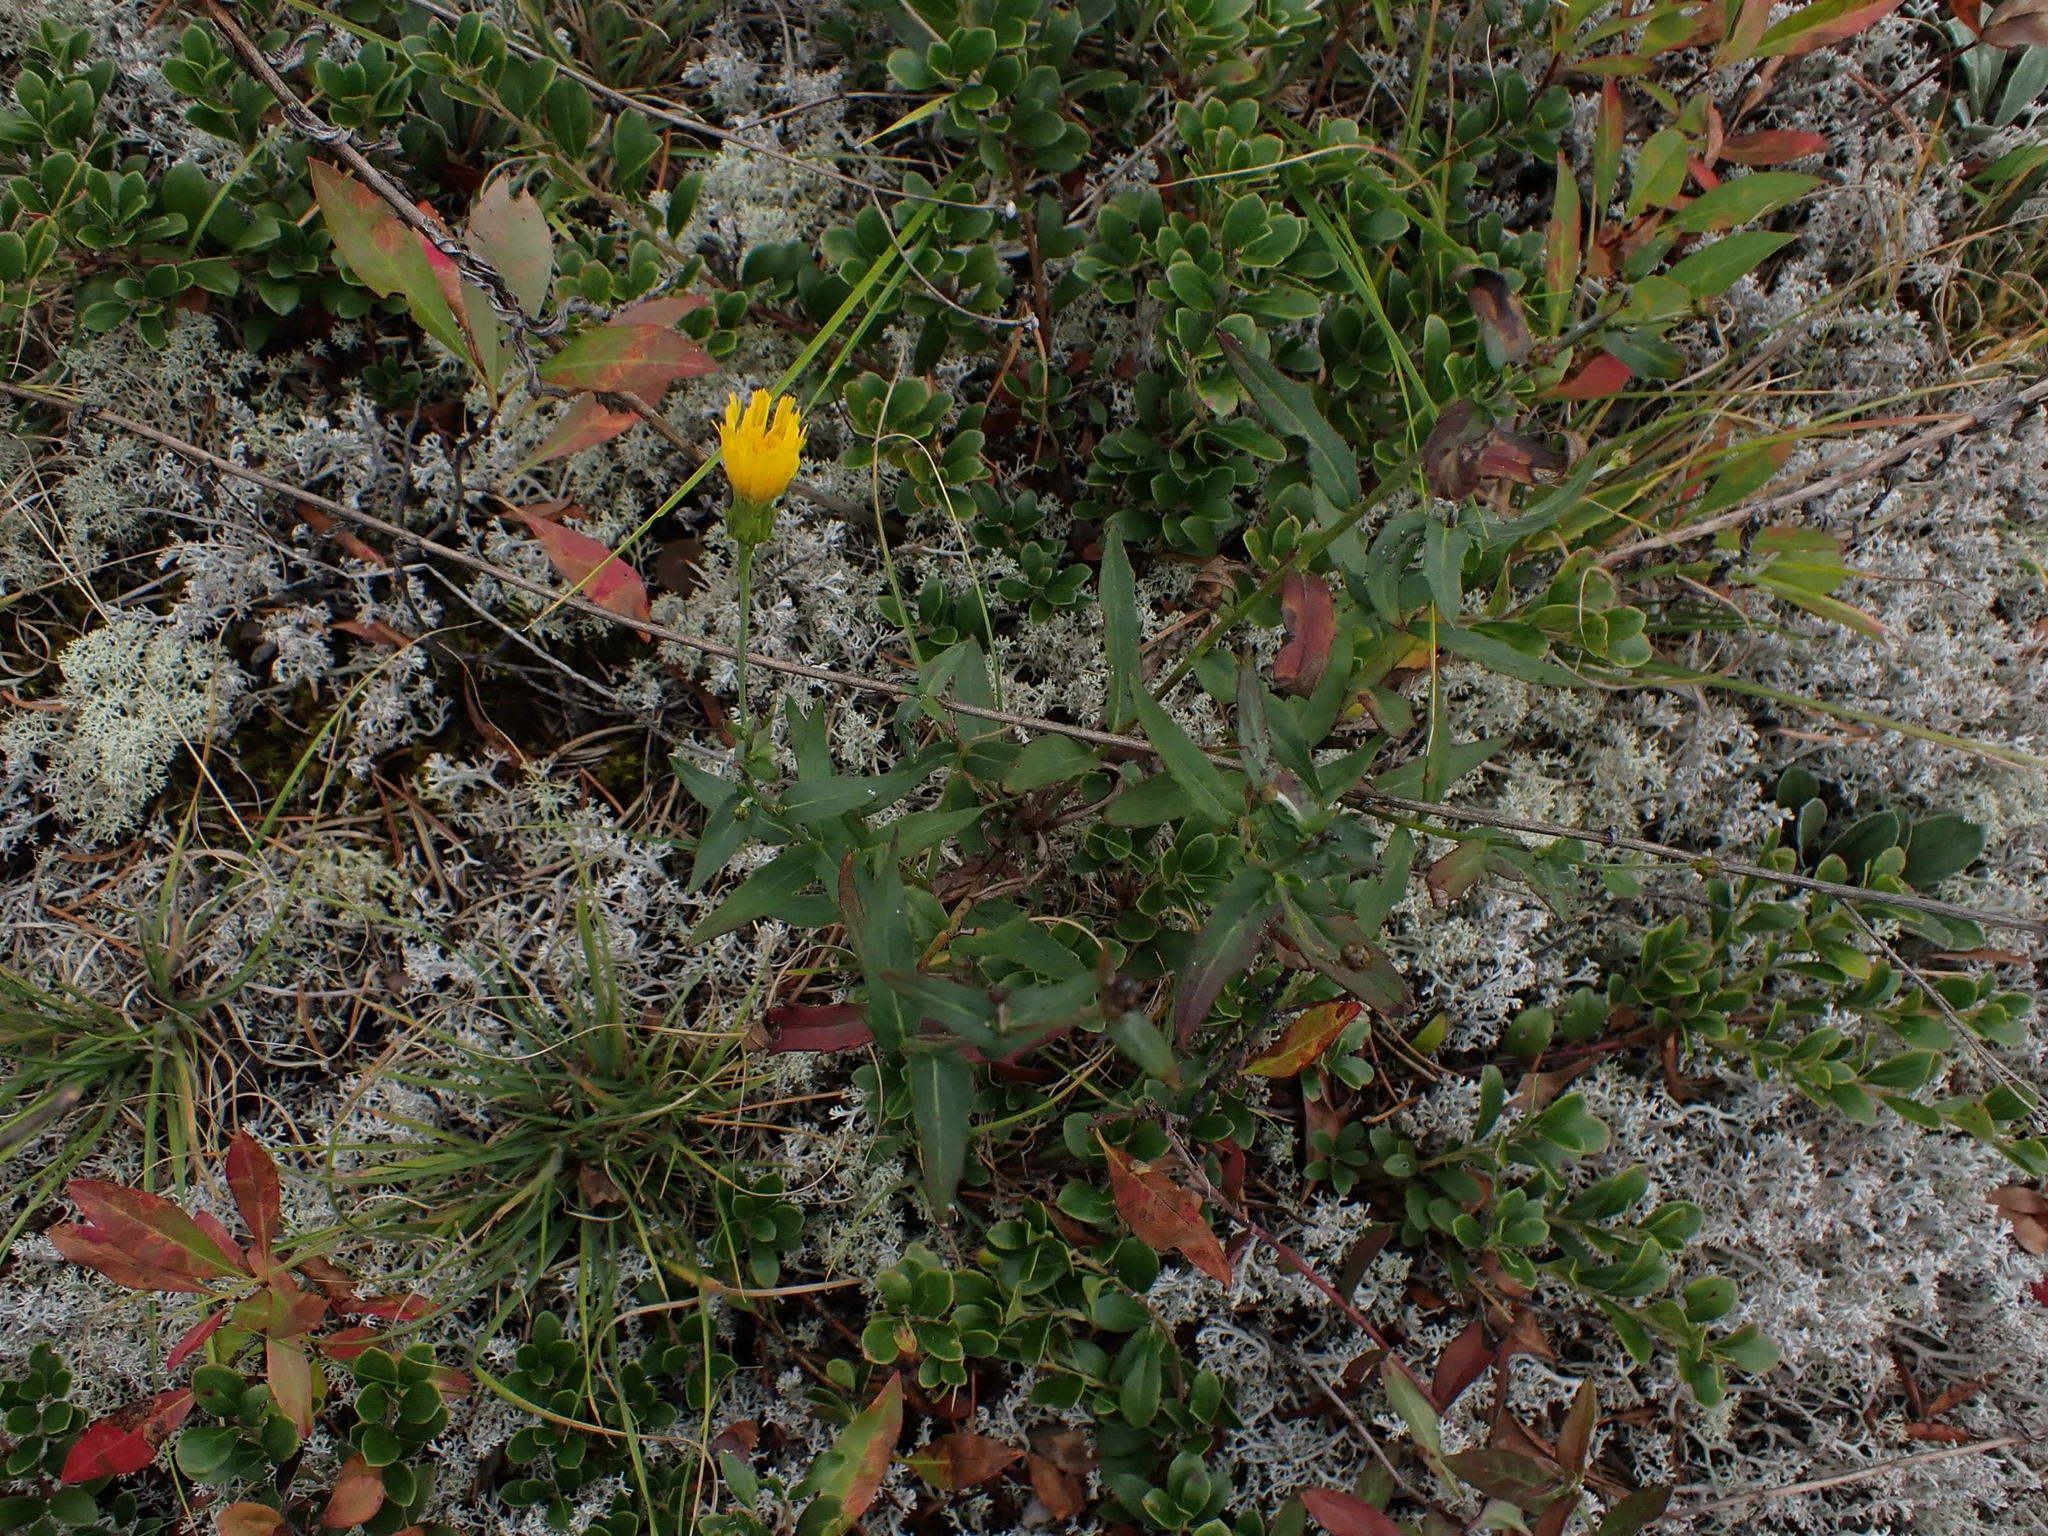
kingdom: Plantae
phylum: Tracheophyta
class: Magnoliopsida
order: Asterales
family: Asteraceae
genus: Hieracium
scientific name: Hieracium umbellatum
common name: Northern hawkweed
